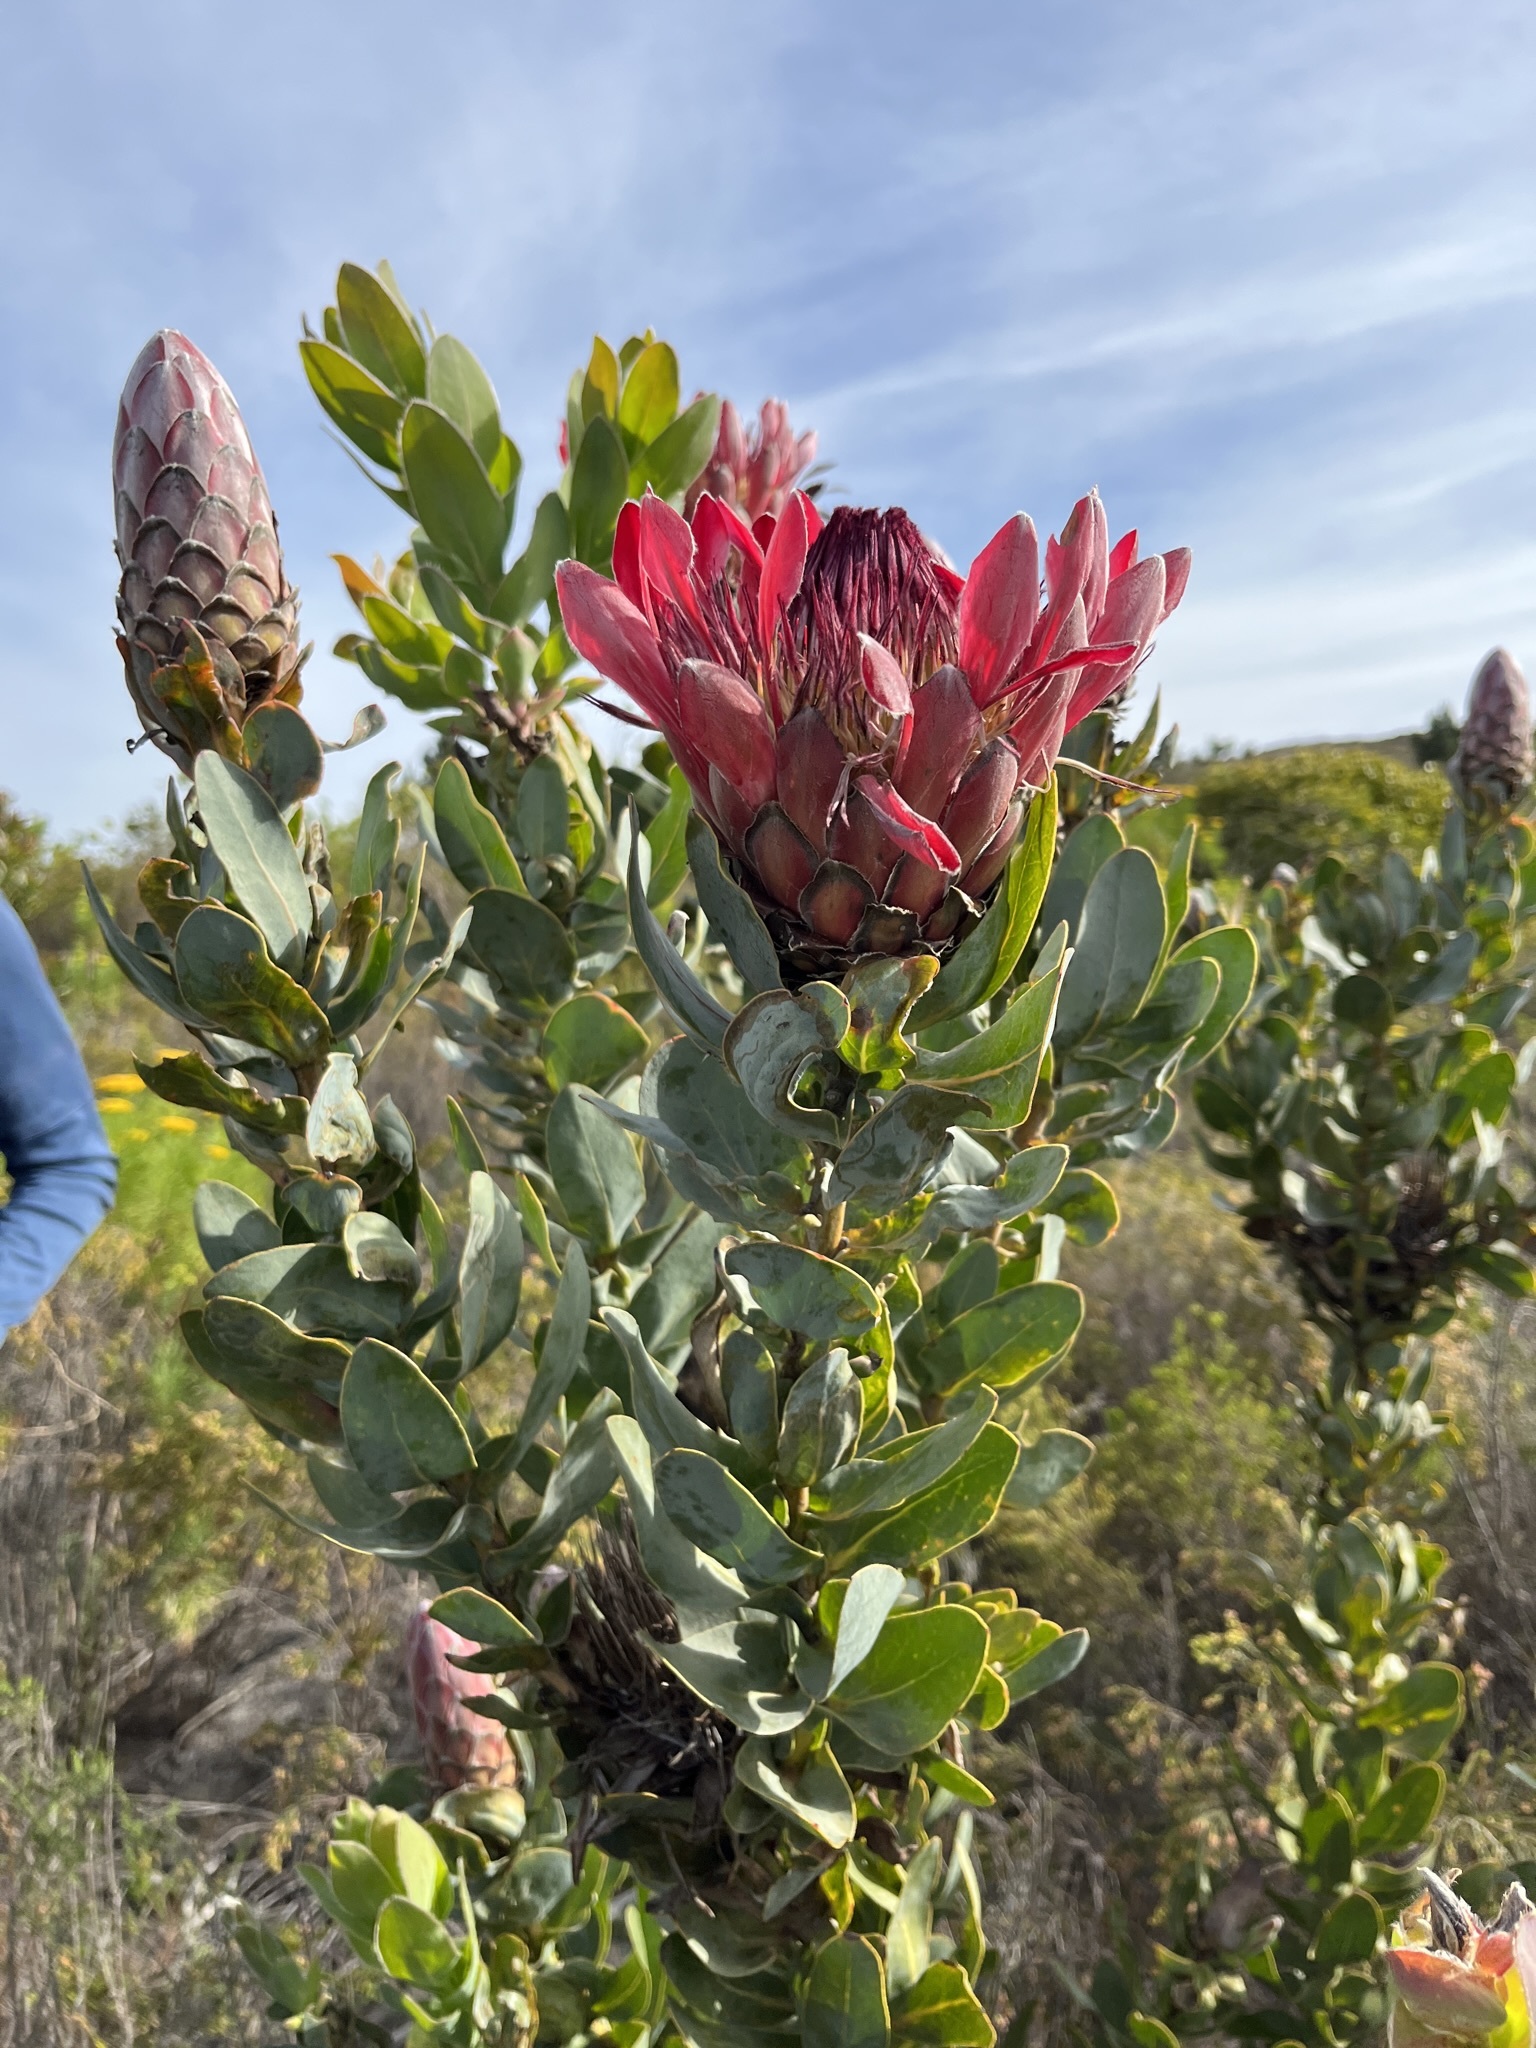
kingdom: Plantae
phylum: Tracheophyta
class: Magnoliopsida
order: Proteales
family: Proteaceae
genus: Protea
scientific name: Protea eximia
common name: Broad-leaved sugarbush
